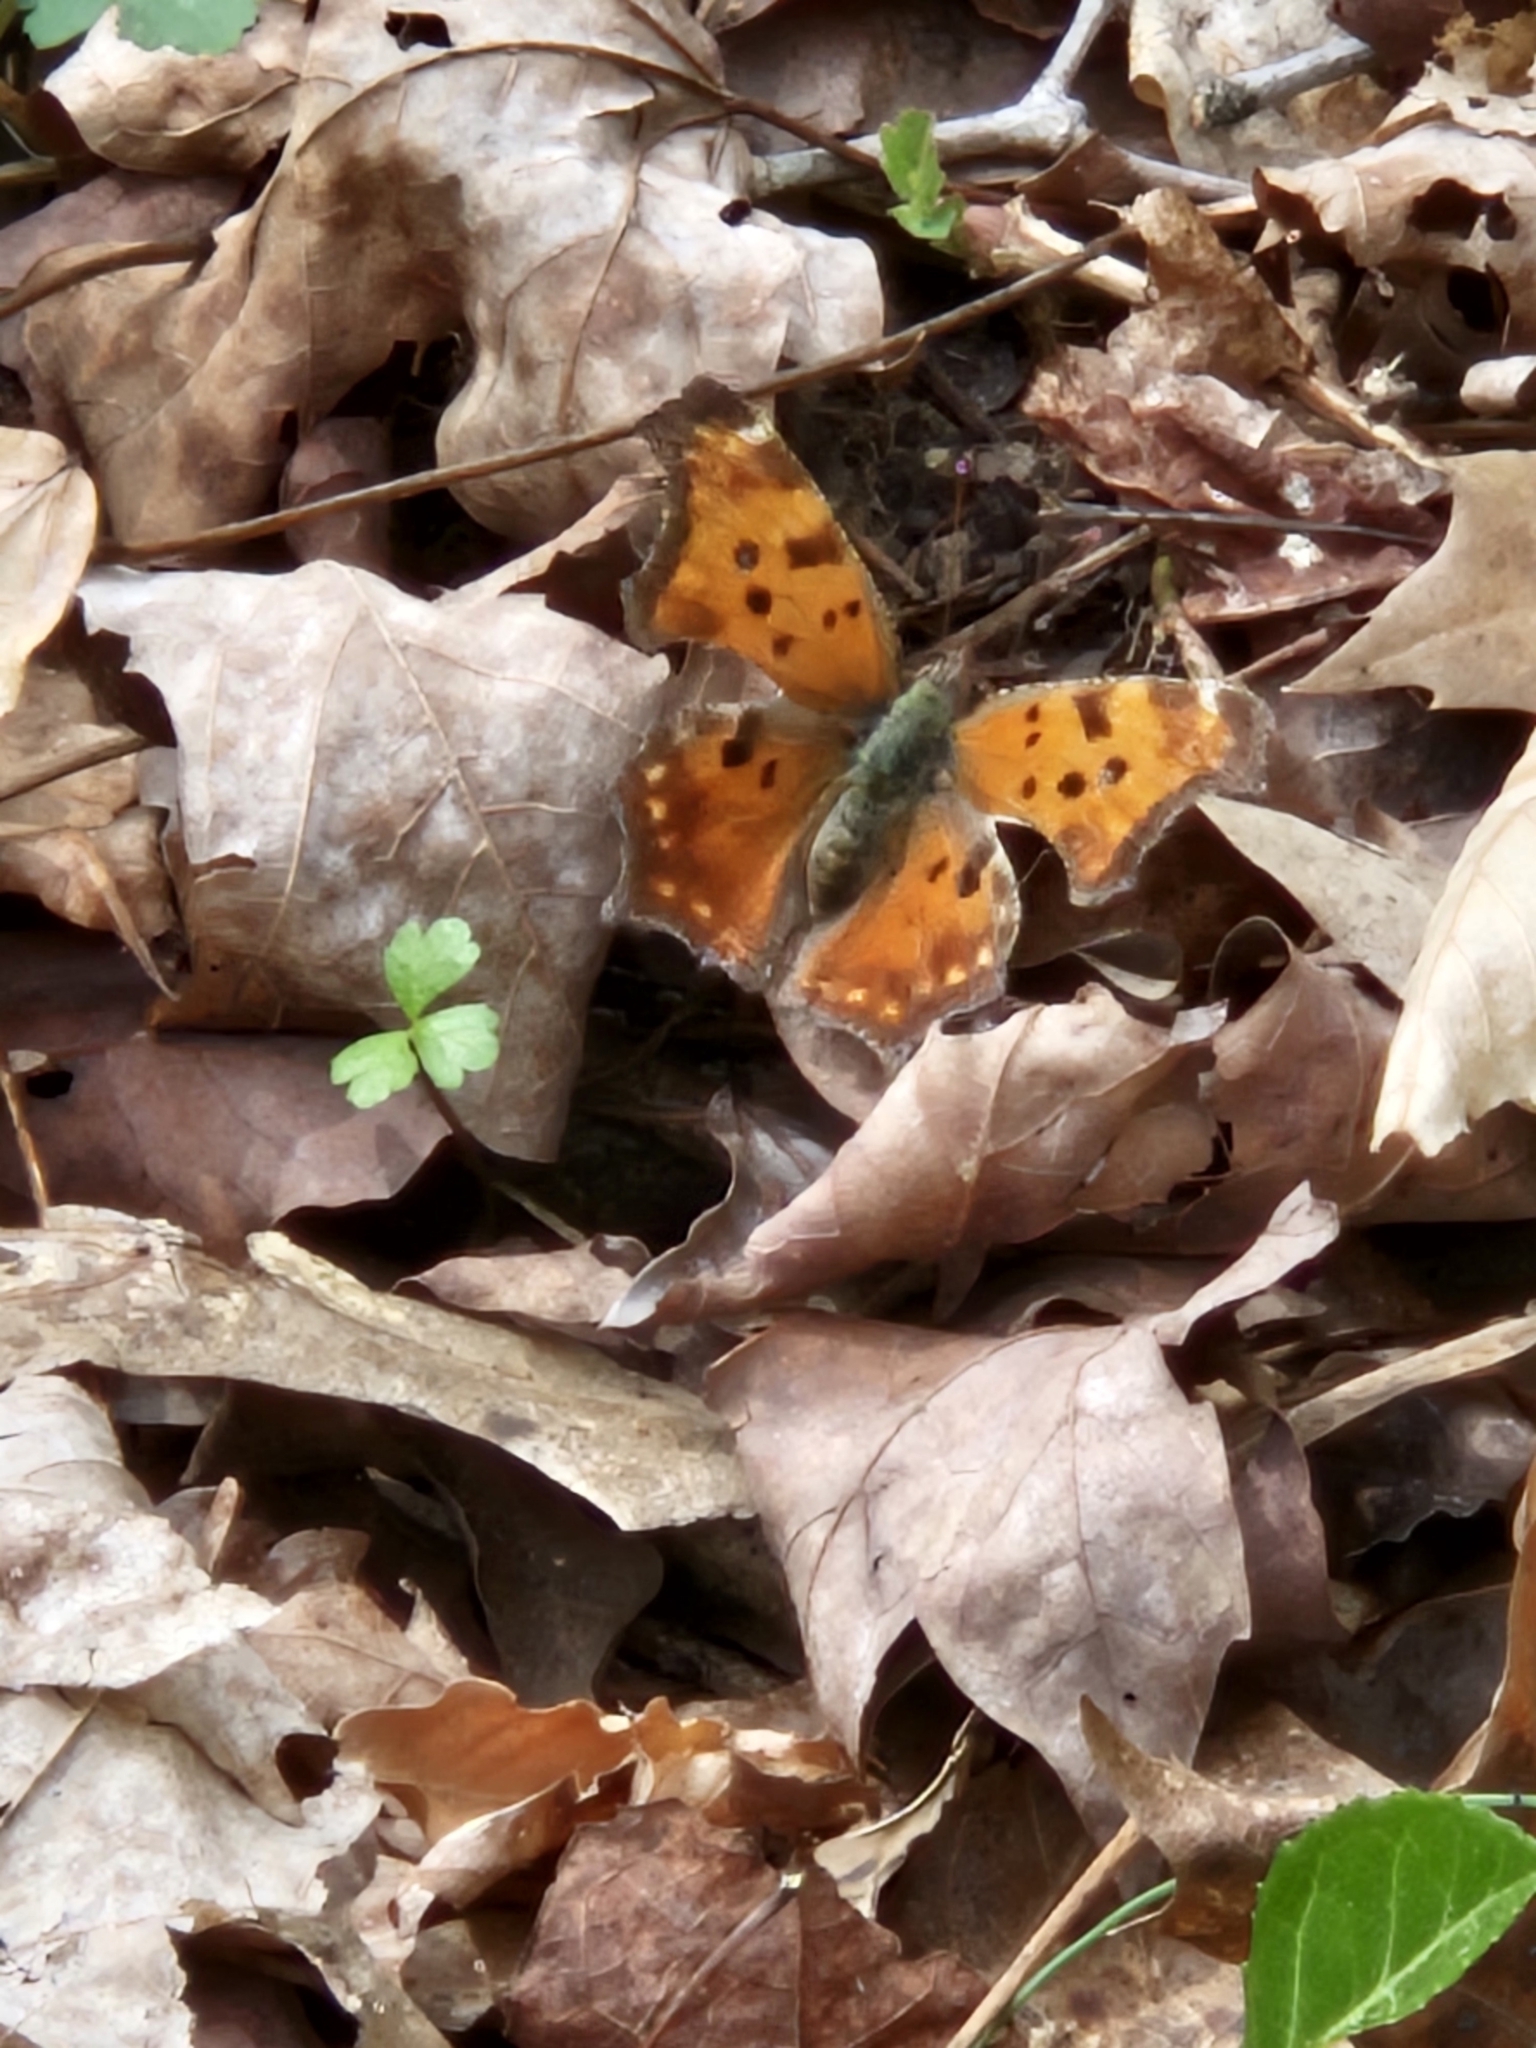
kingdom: Animalia
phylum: Arthropoda
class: Insecta
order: Lepidoptera
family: Nymphalidae
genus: Polygonia
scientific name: Polygonia comma
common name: Eastern comma
